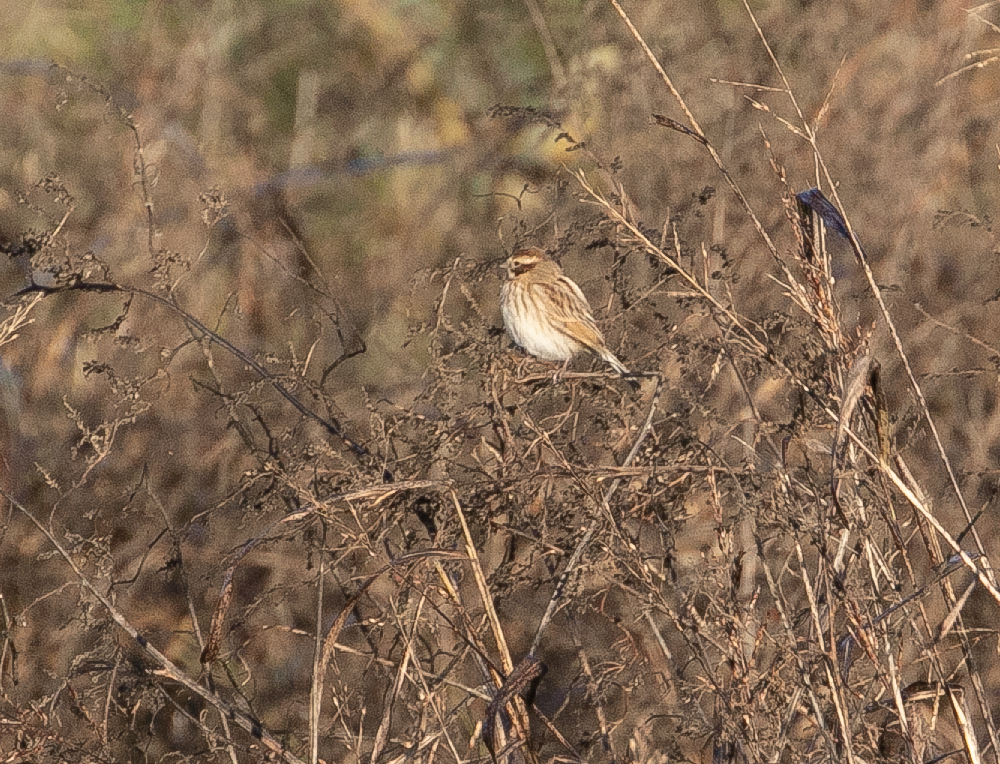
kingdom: Animalia
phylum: Chordata
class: Aves
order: Passeriformes
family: Emberizidae
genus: Emberiza
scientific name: Emberiza schoeniclus
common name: Reed bunting
